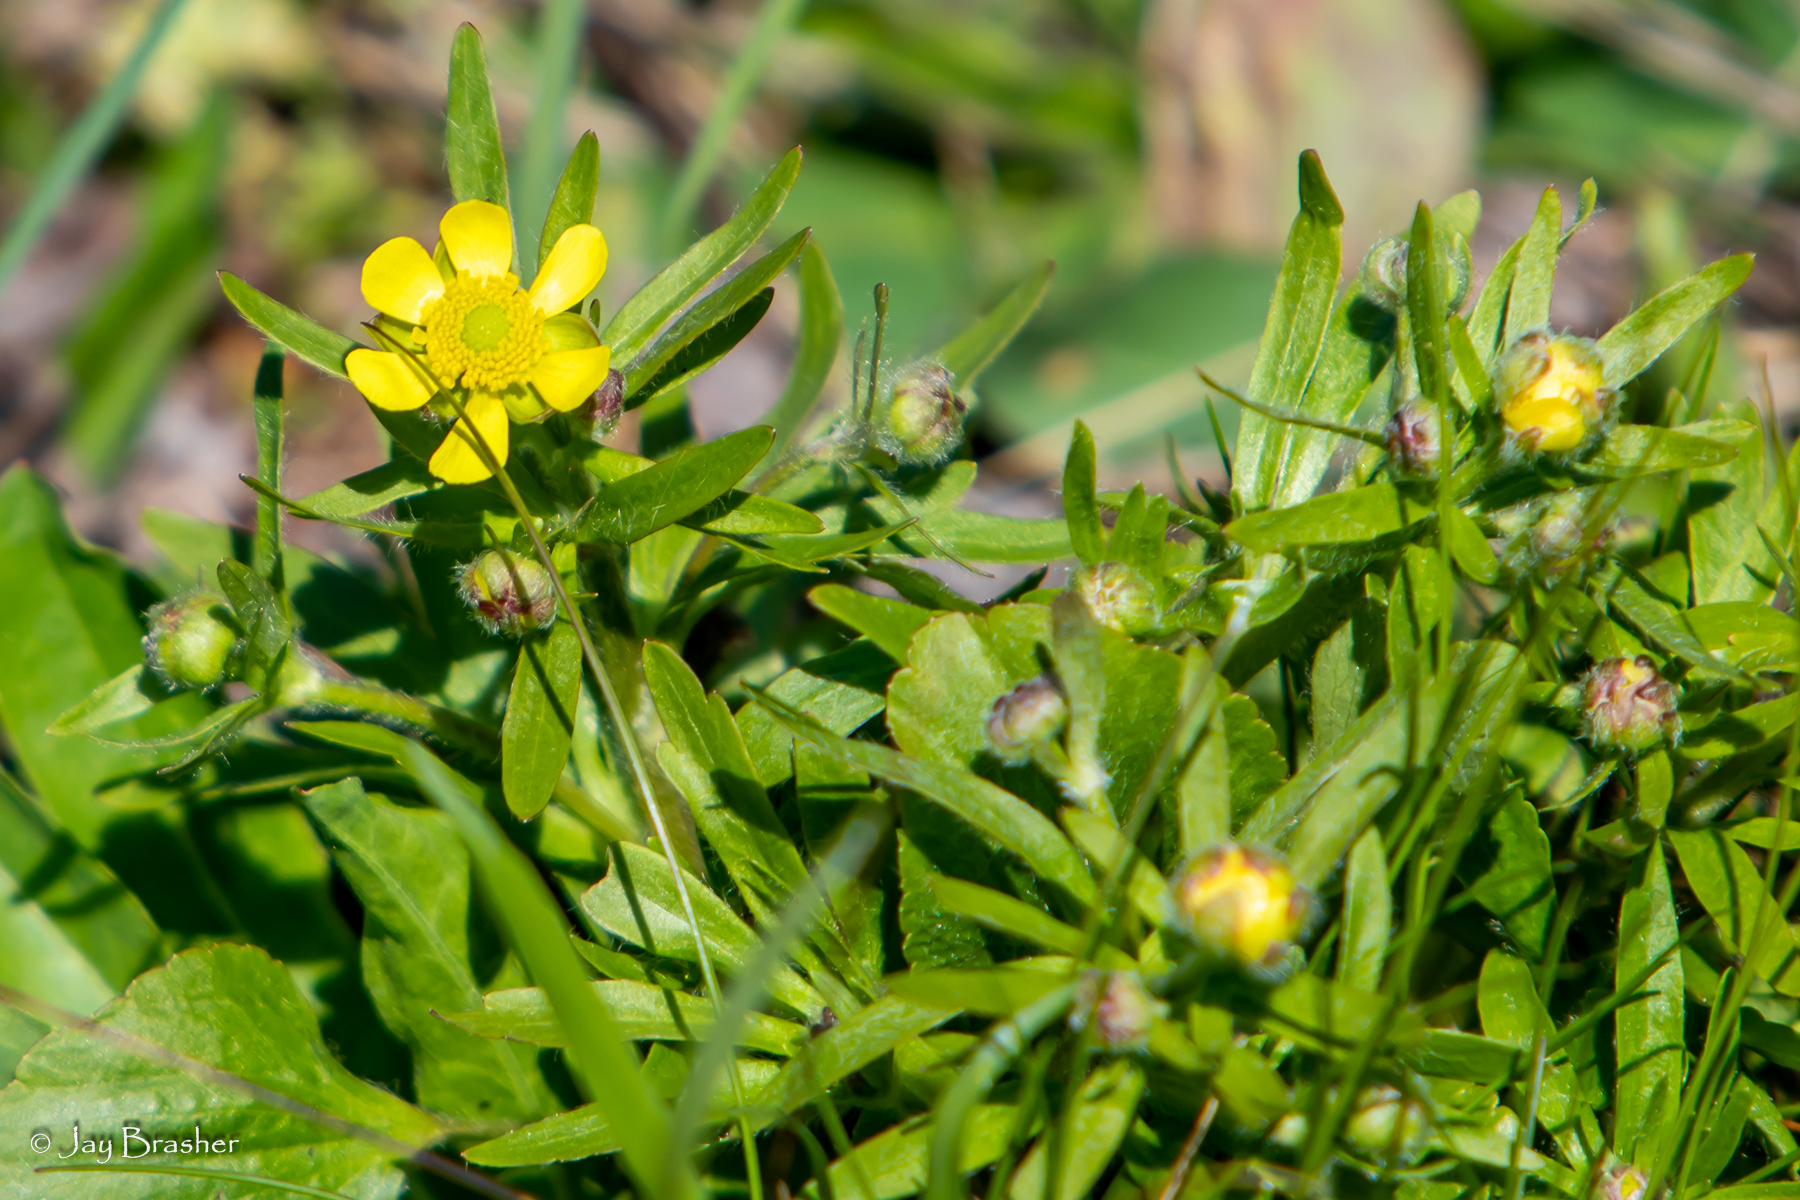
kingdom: Plantae
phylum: Tracheophyta
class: Magnoliopsida
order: Ranunculales
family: Ranunculaceae
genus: Ranunculus
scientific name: Ranunculus rhomboideus
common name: Prairie buttercup
